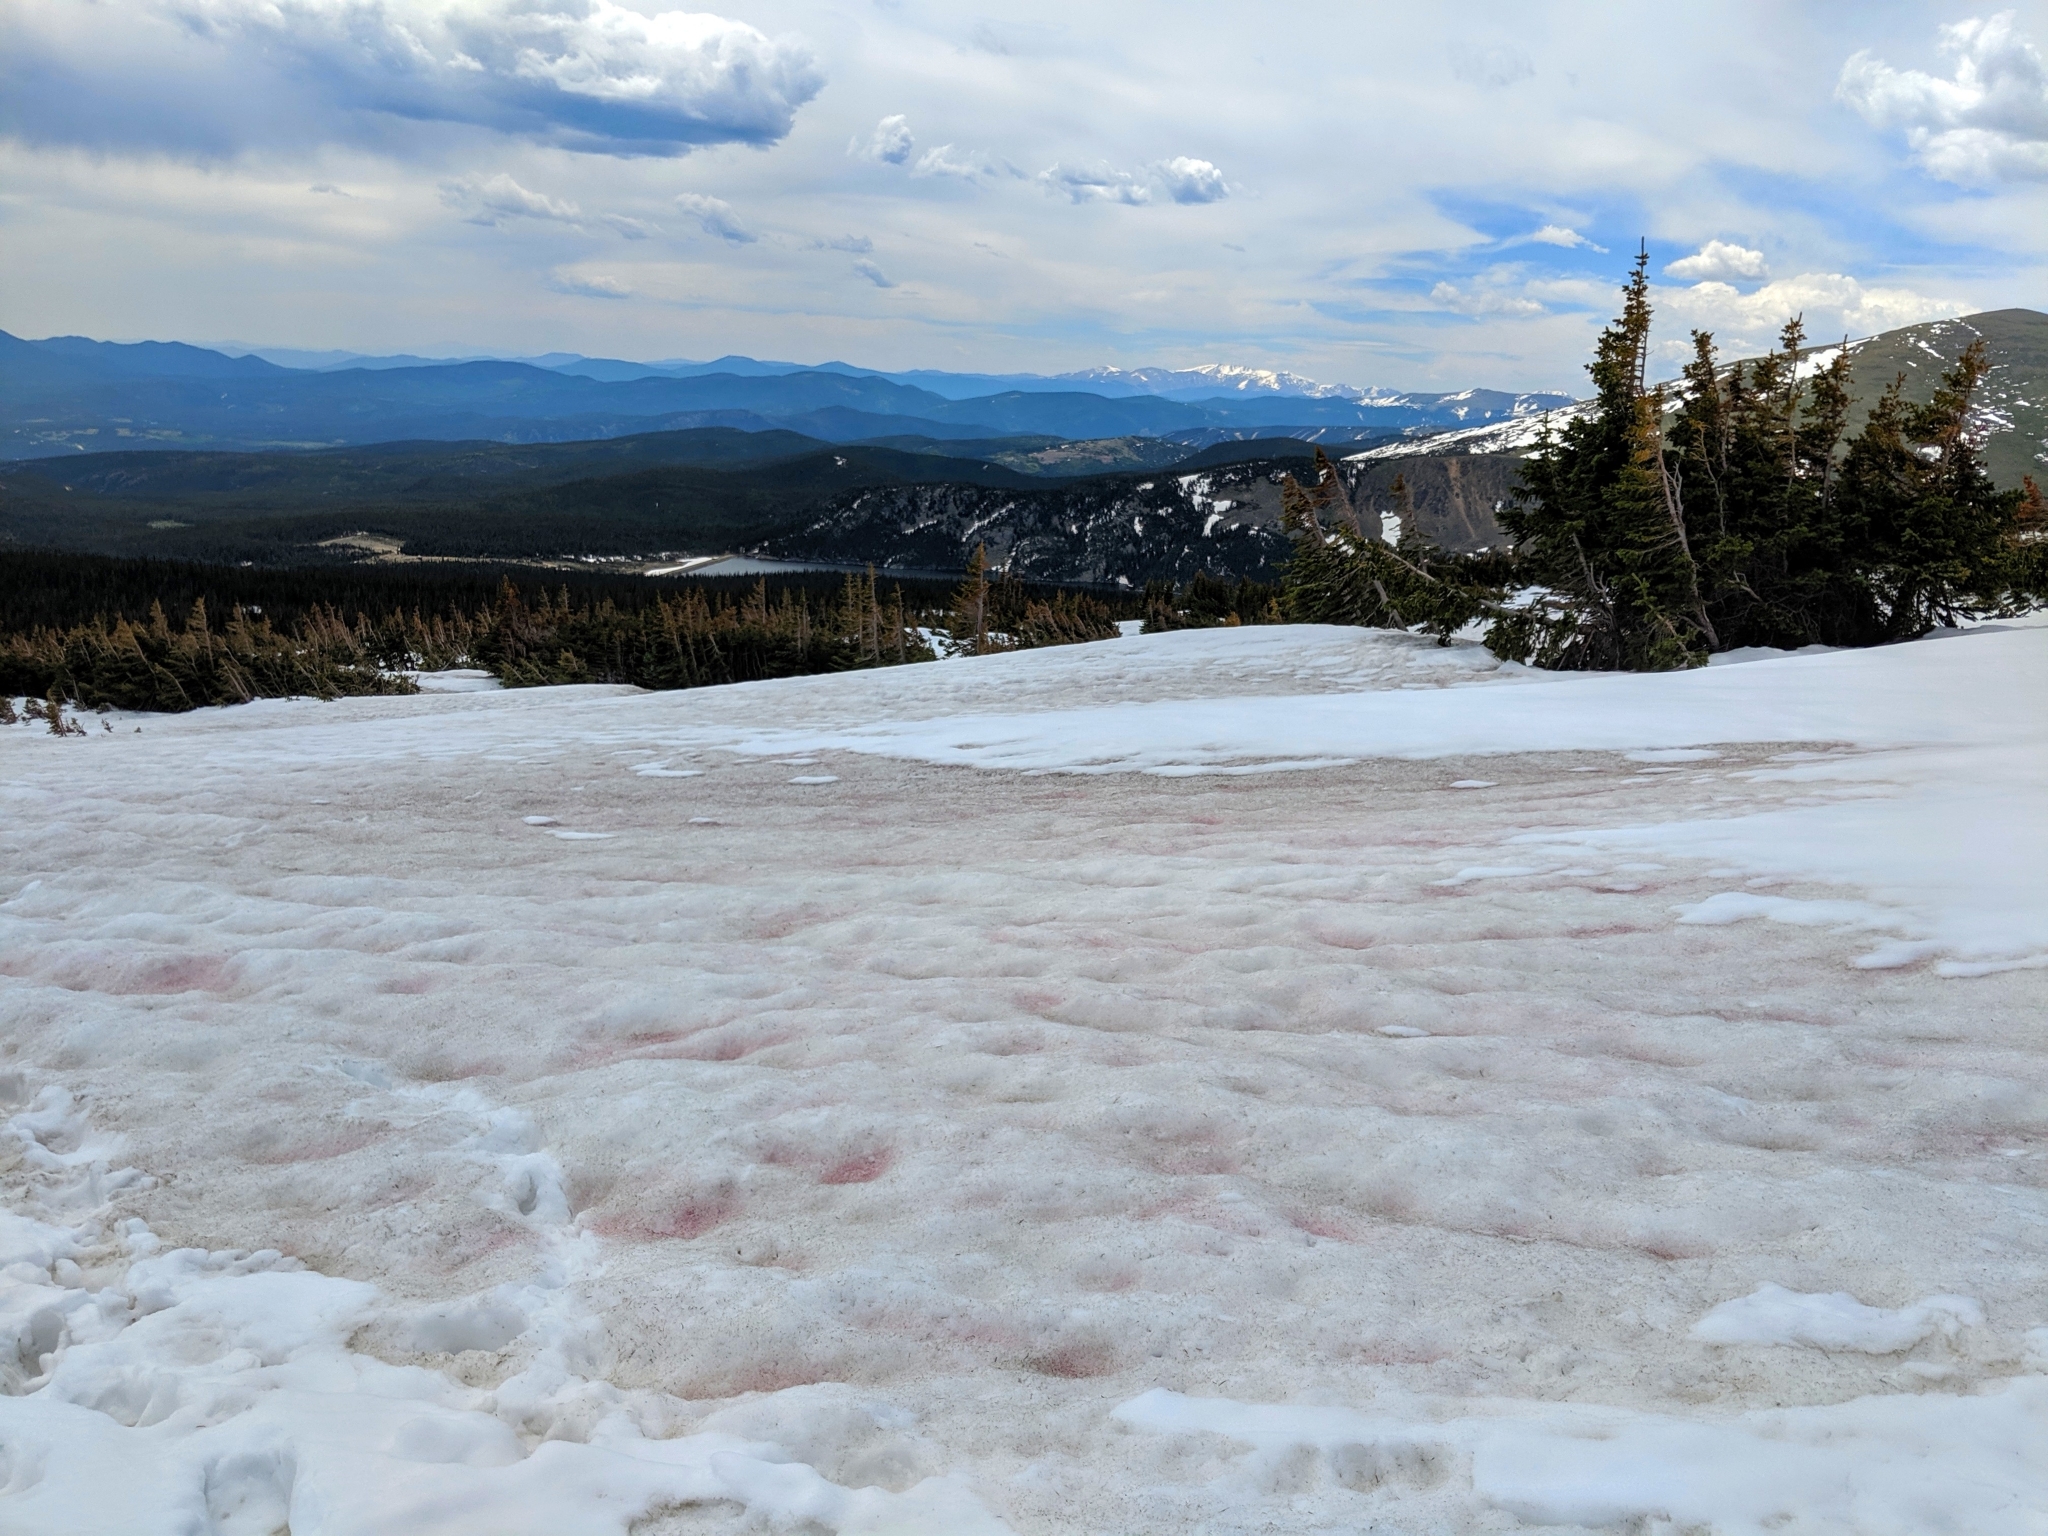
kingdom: Plantae
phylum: Chlorophyta
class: Chlorophyceae
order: Volvocales
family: Chlamydomonadaceae
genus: Chlamydomonas
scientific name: Chlamydomonas nivalis
